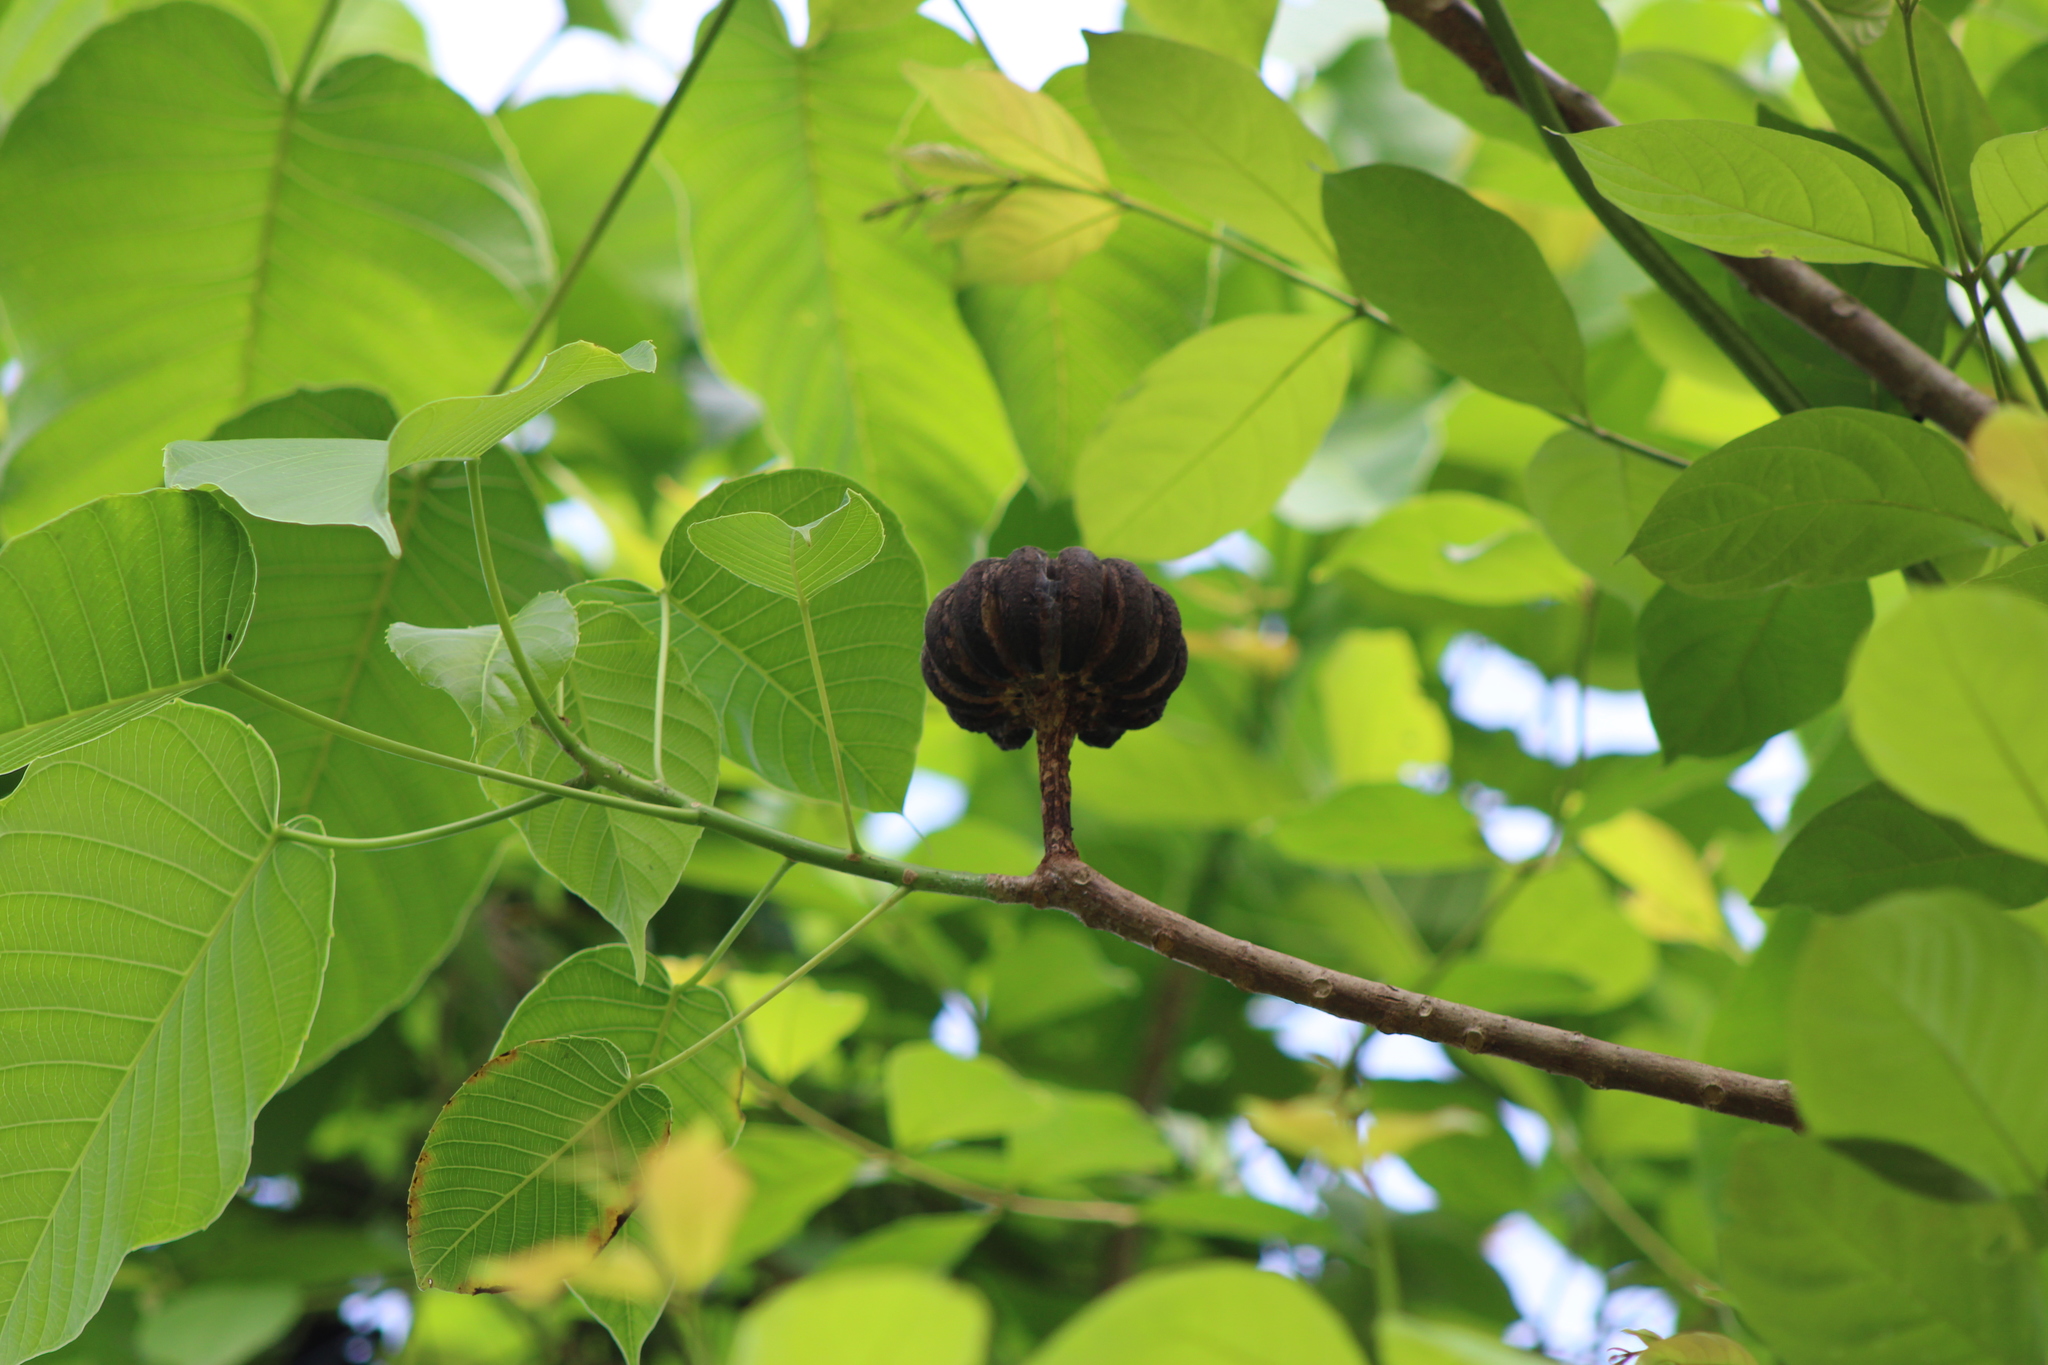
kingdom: Plantae
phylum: Tracheophyta
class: Magnoliopsida
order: Malpighiales
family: Euphorbiaceae
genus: Hura
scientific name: Hura crepitans
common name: Sandboxtree
